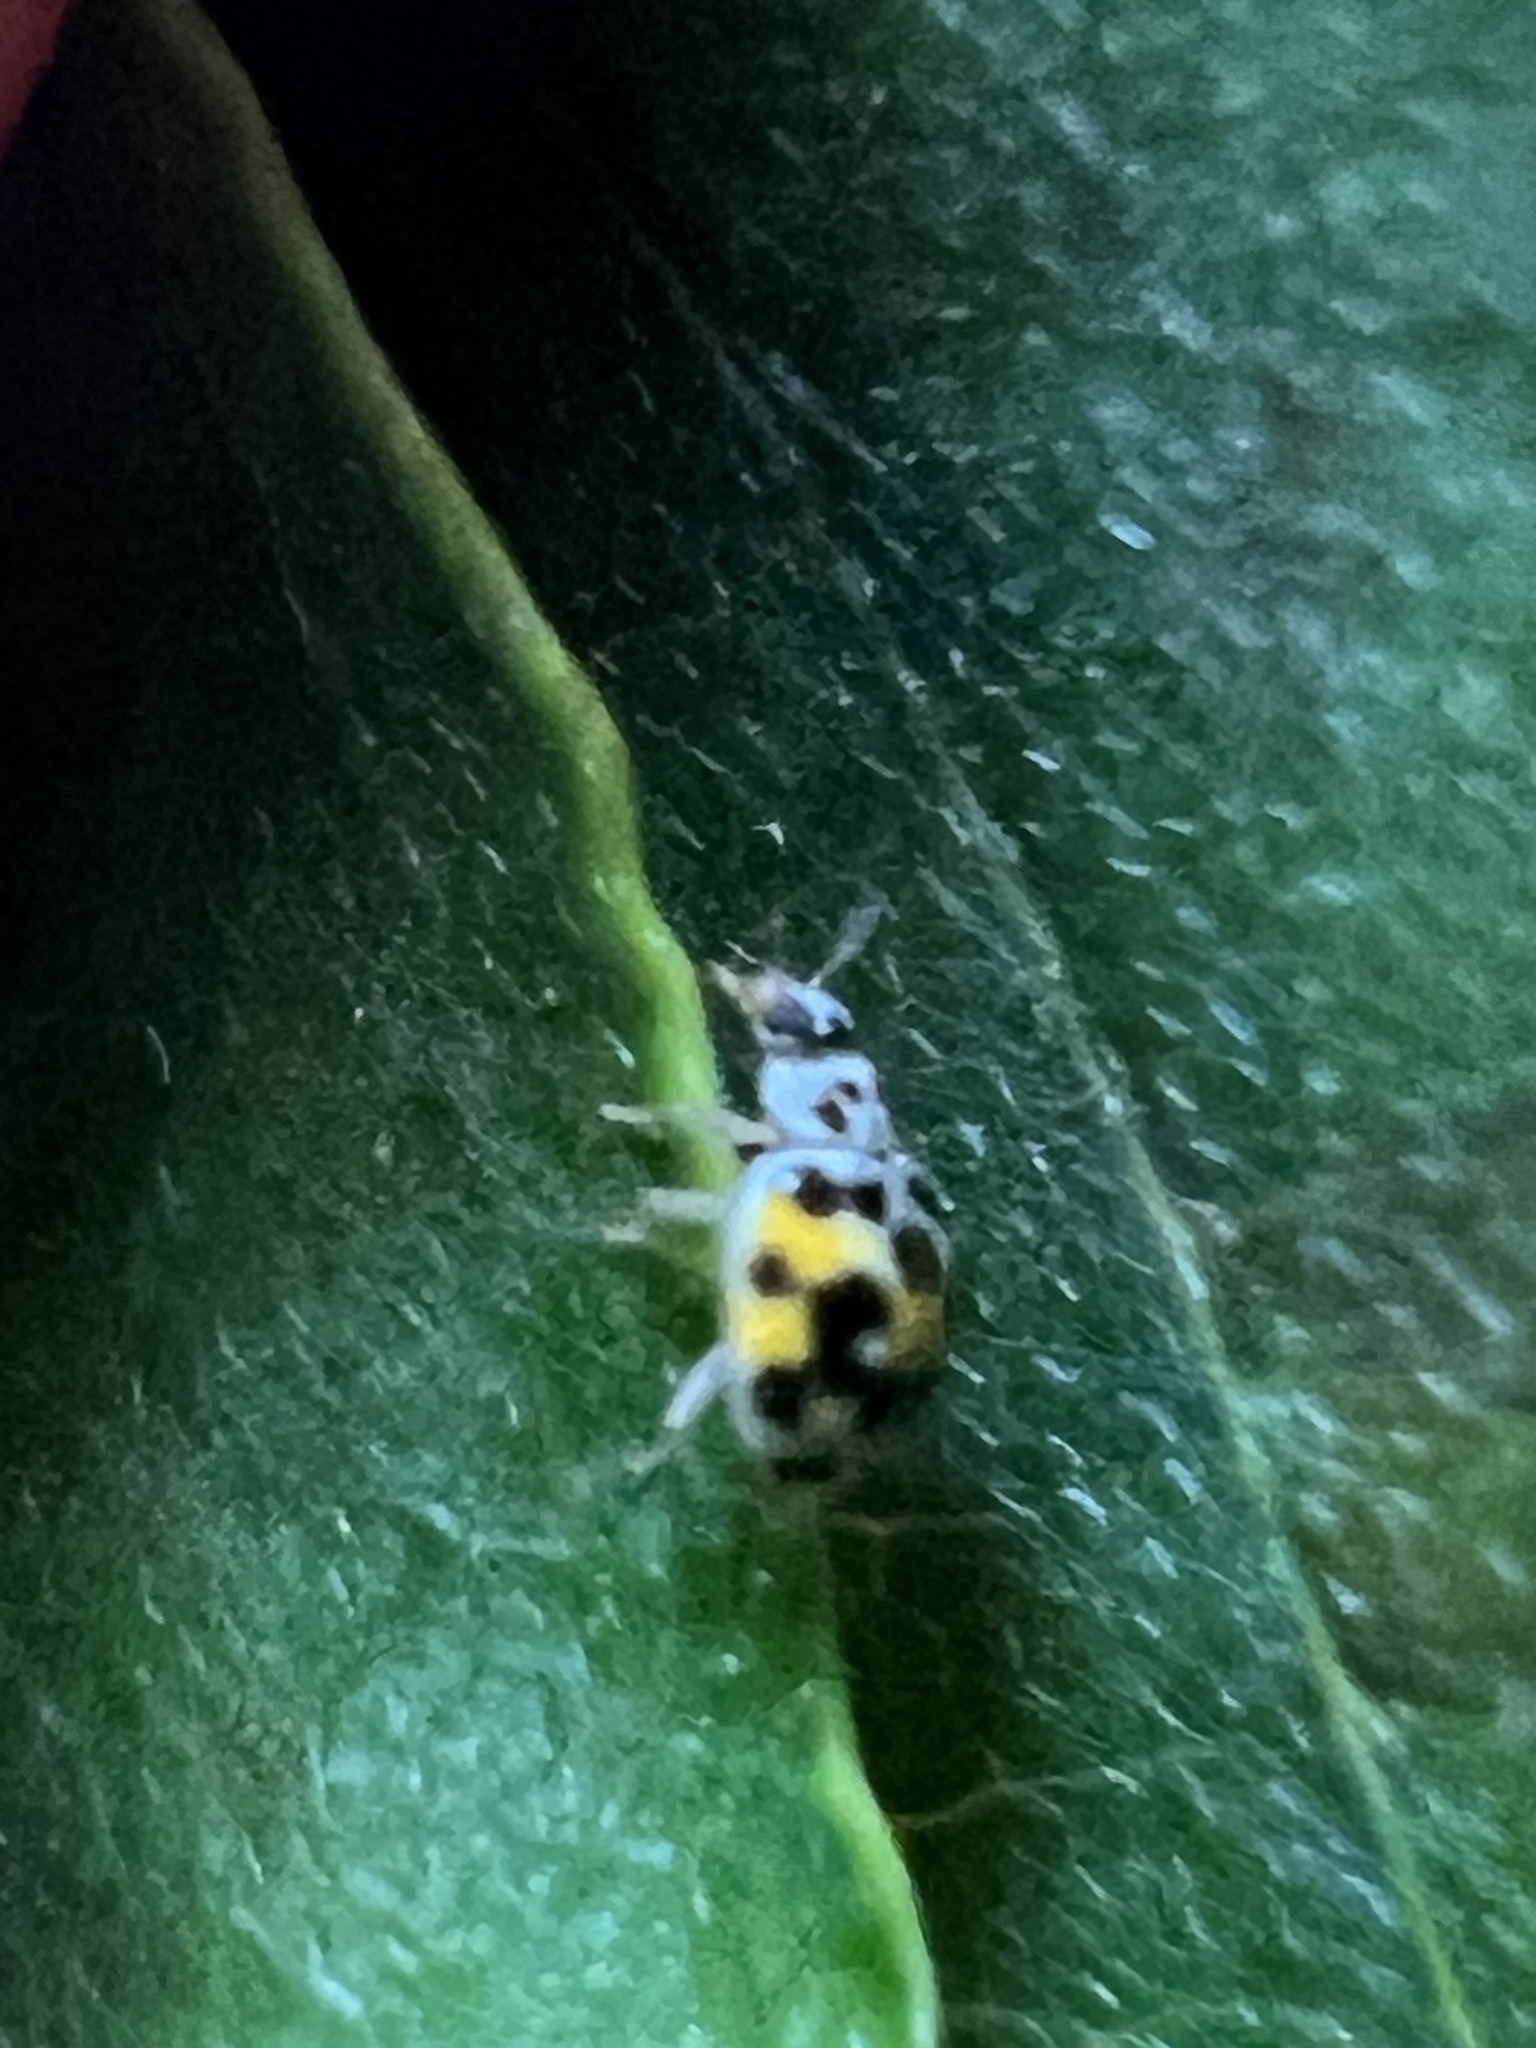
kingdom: Animalia
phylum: Arthropoda
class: Insecta
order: Coleoptera
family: Coccinellidae
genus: Psyllobora
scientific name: Psyllobora vigintimaculata
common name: Ladybird beetle
